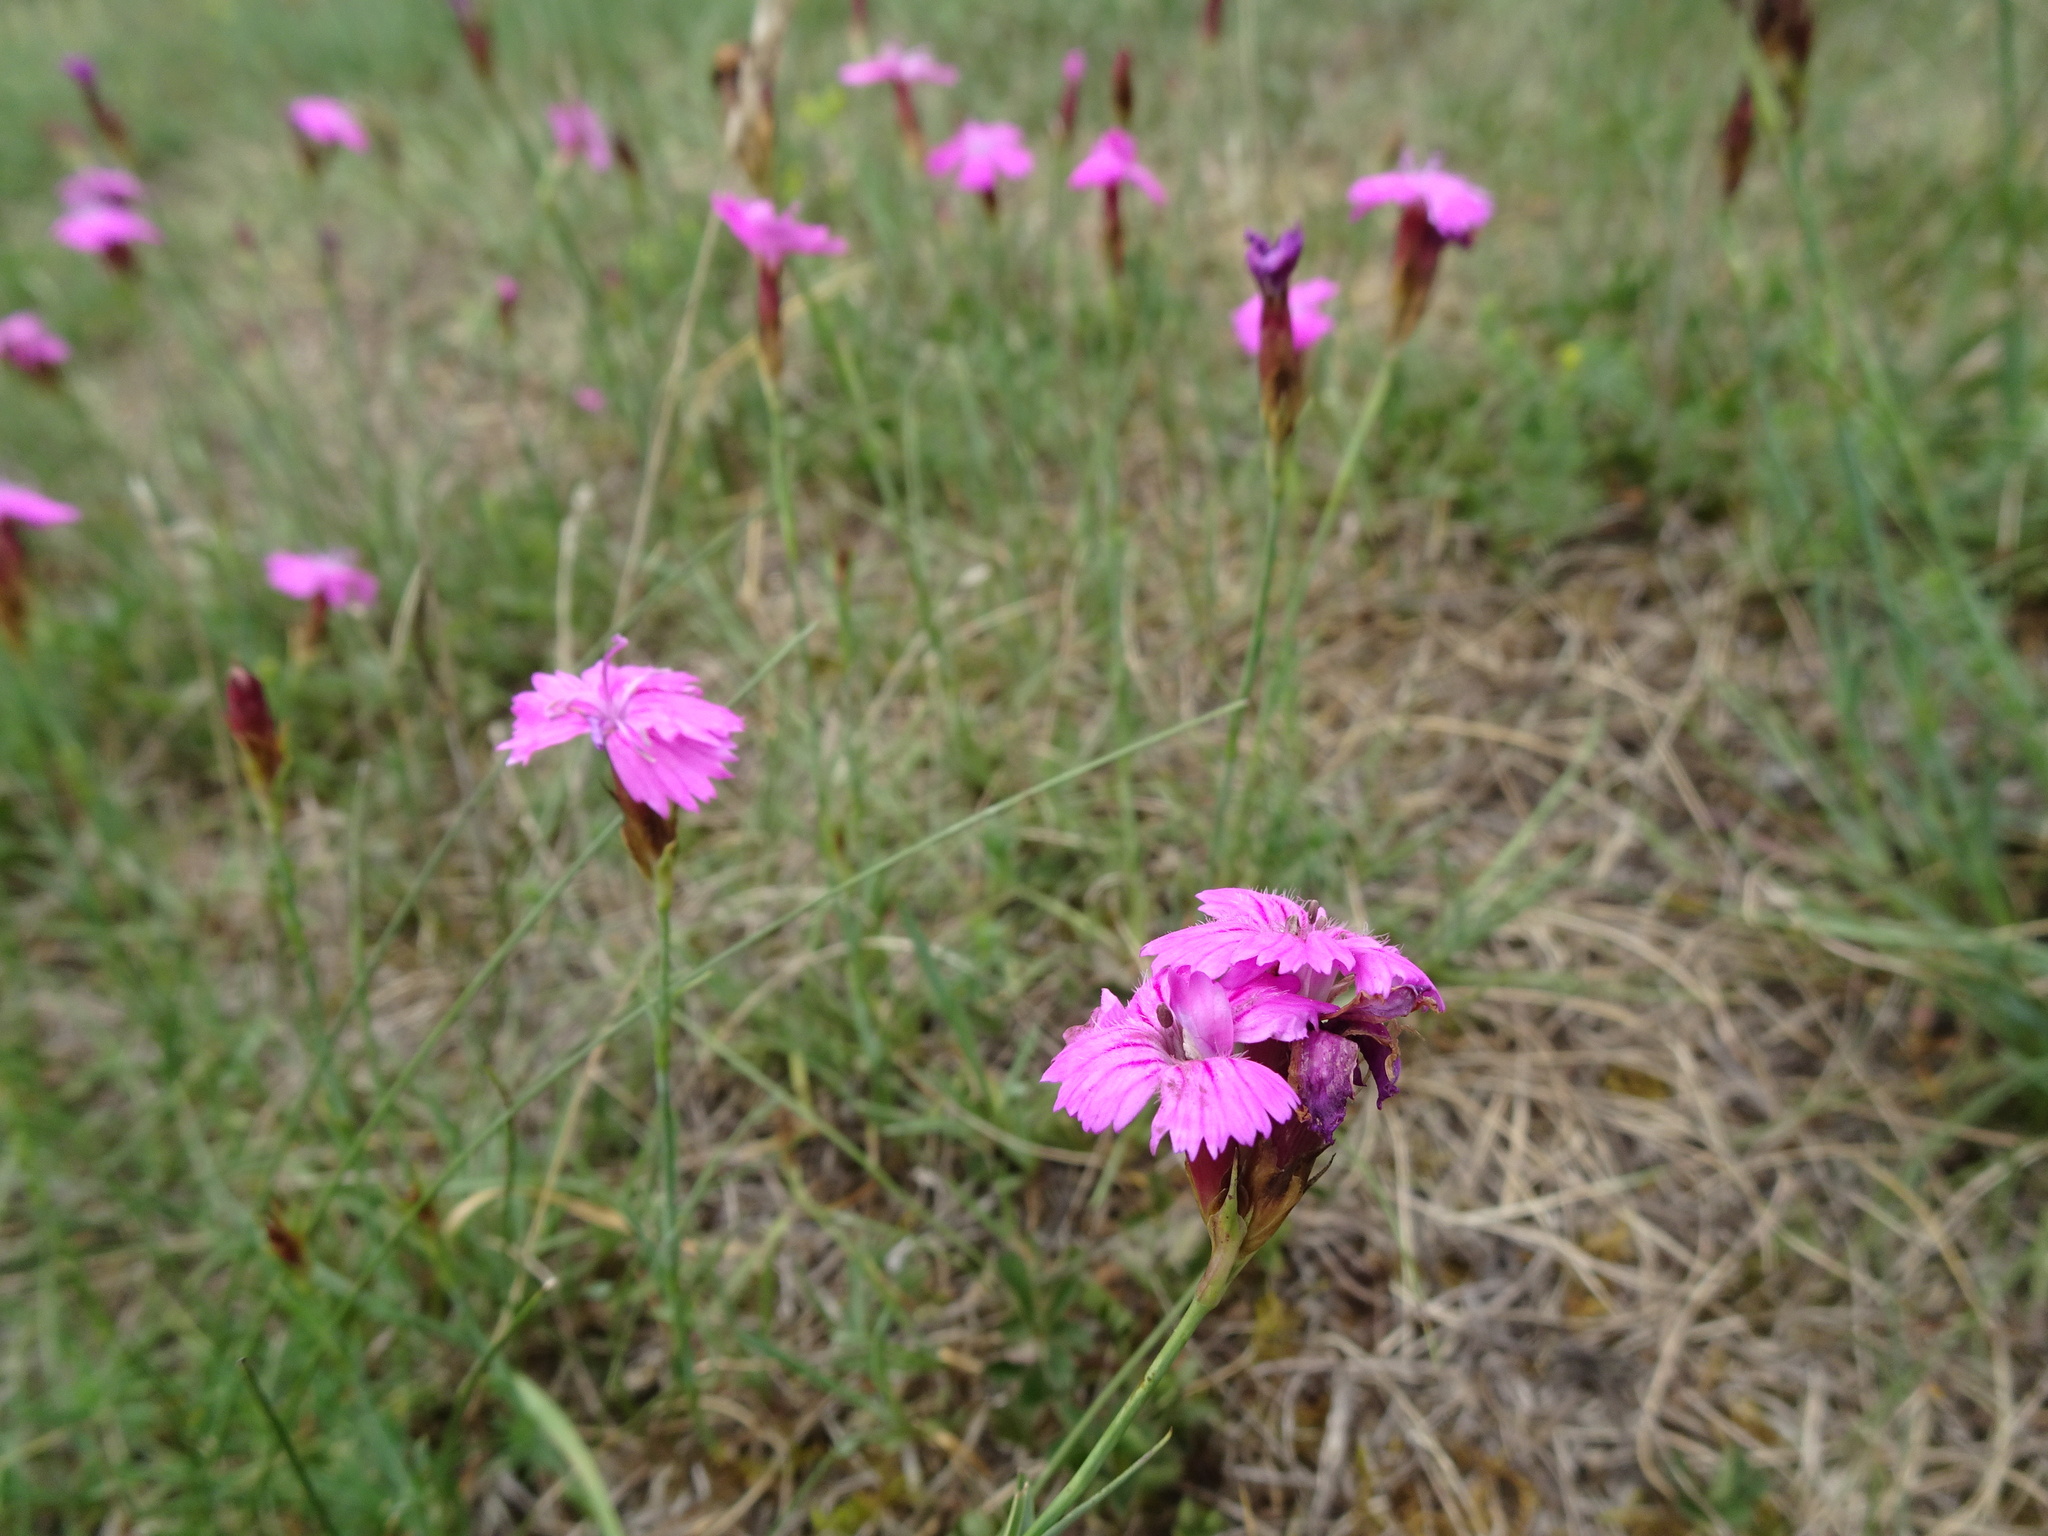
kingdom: Plantae
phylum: Tracheophyta
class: Magnoliopsida
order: Caryophyllales
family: Caryophyllaceae
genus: Dianthus
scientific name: Dianthus carthusianorum
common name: Carthusian pink
